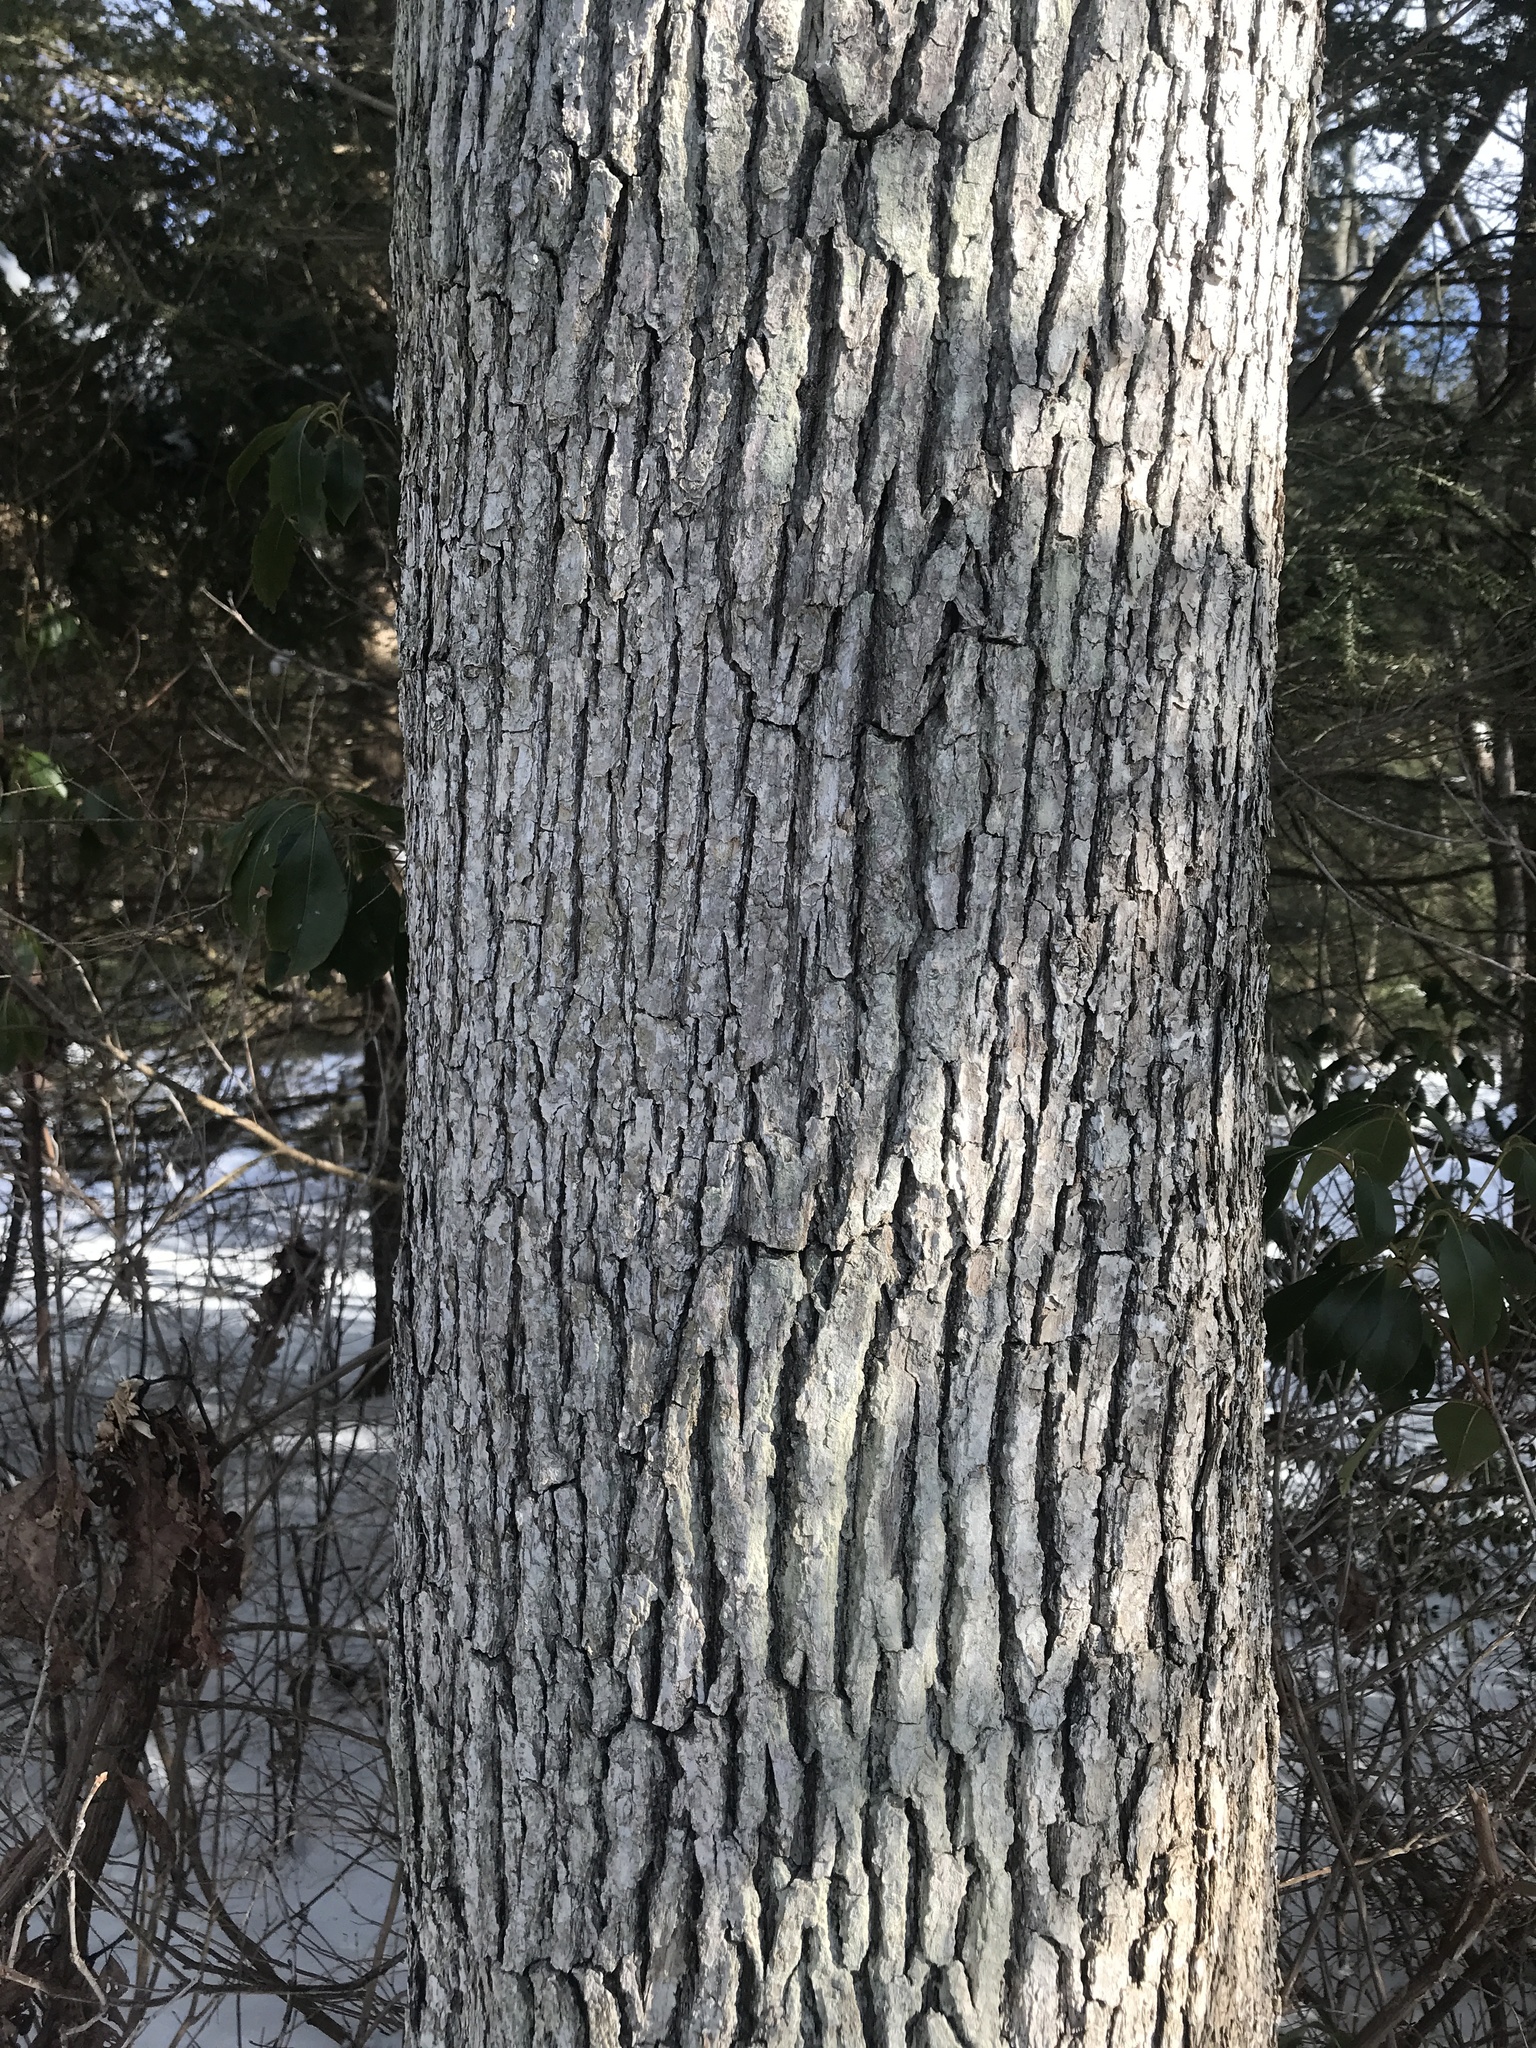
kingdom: Plantae
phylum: Tracheophyta
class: Magnoliopsida
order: Fagales
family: Fagaceae
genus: Quercus
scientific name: Quercus alba
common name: White oak
